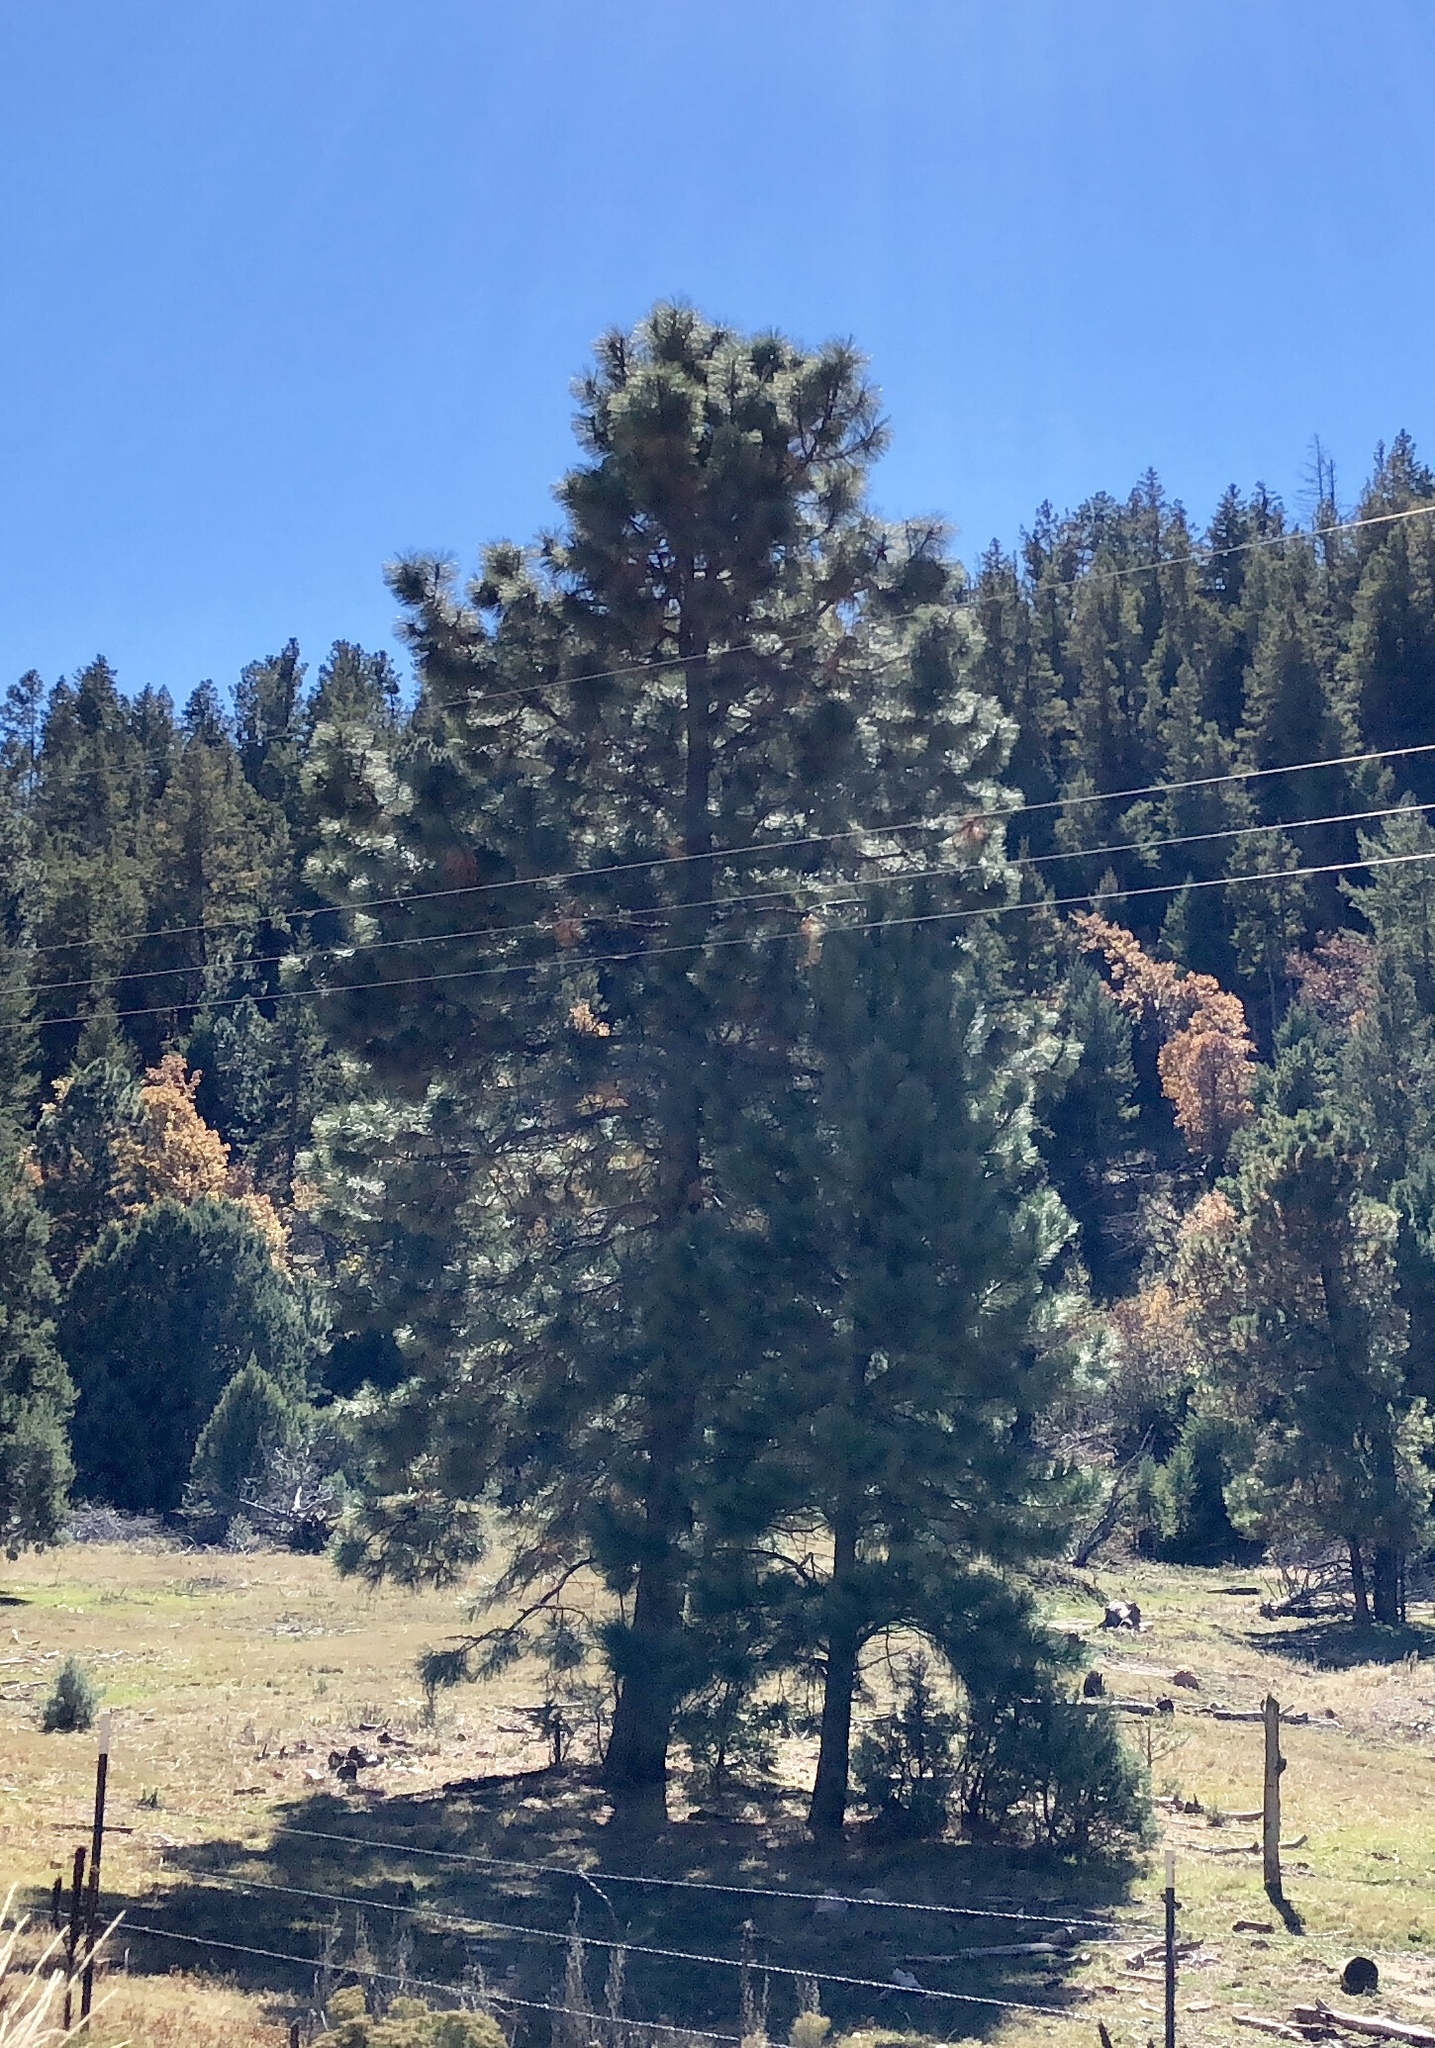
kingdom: Plantae
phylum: Tracheophyta
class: Pinopsida
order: Pinales
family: Pinaceae
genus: Pinus
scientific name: Pinus ponderosa
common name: Western yellow-pine
